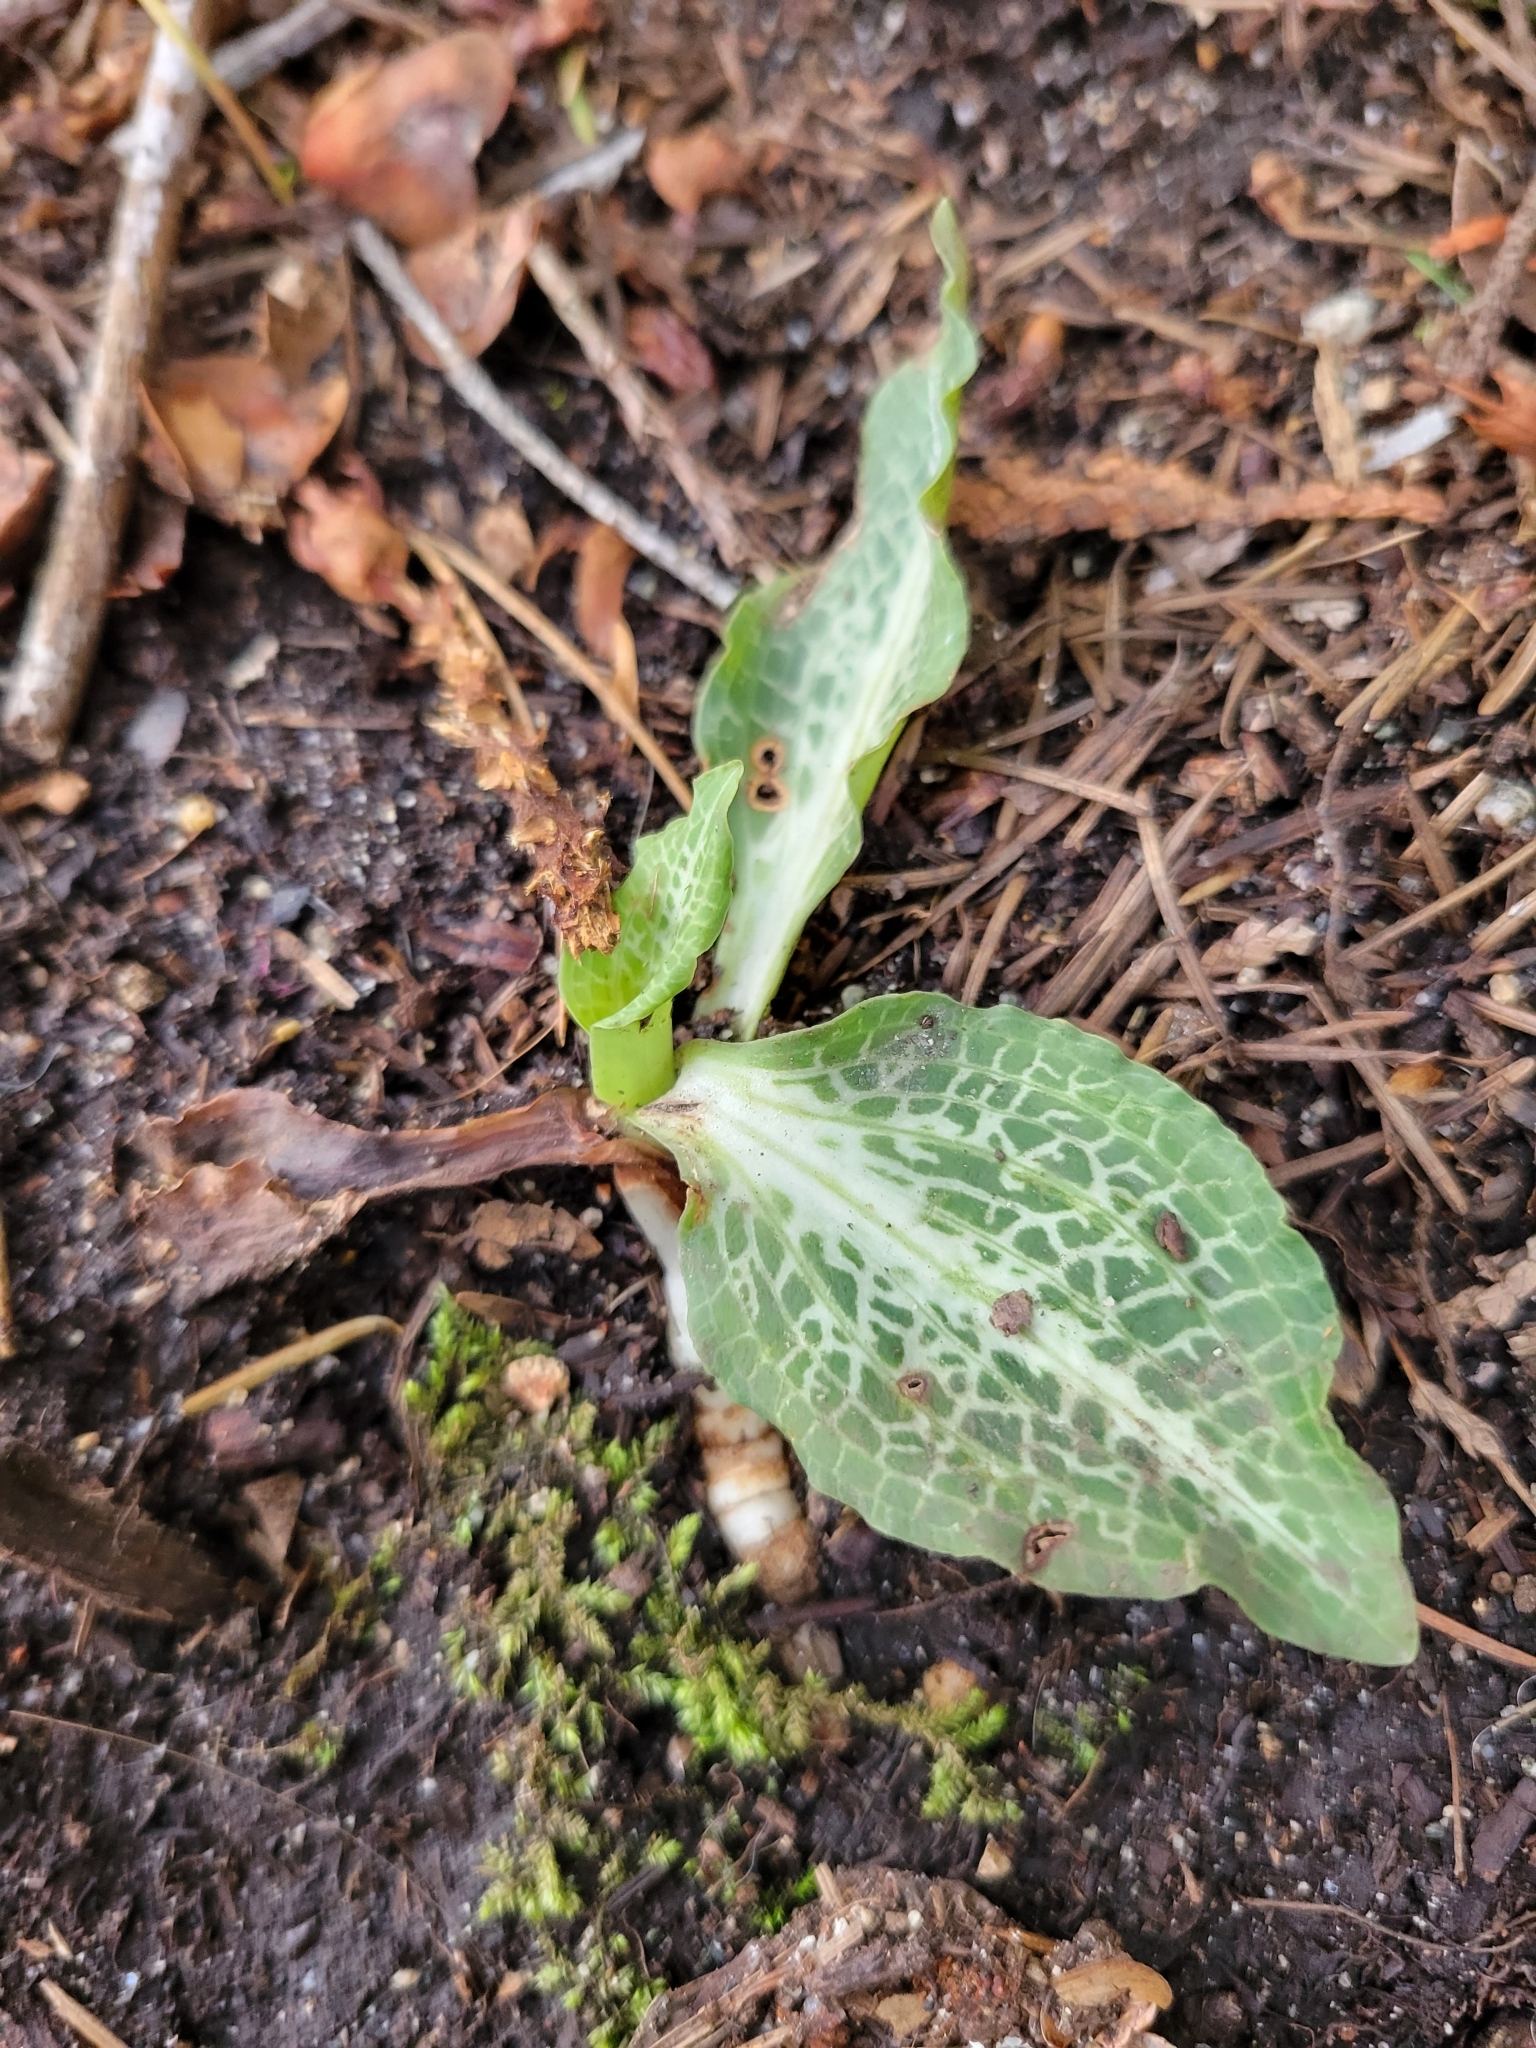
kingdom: Plantae
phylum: Tracheophyta
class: Liliopsida
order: Asparagales
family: Orchidaceae
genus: Goodyera
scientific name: Goodyera oblongifolia
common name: Giant rattlesnake-plantain
